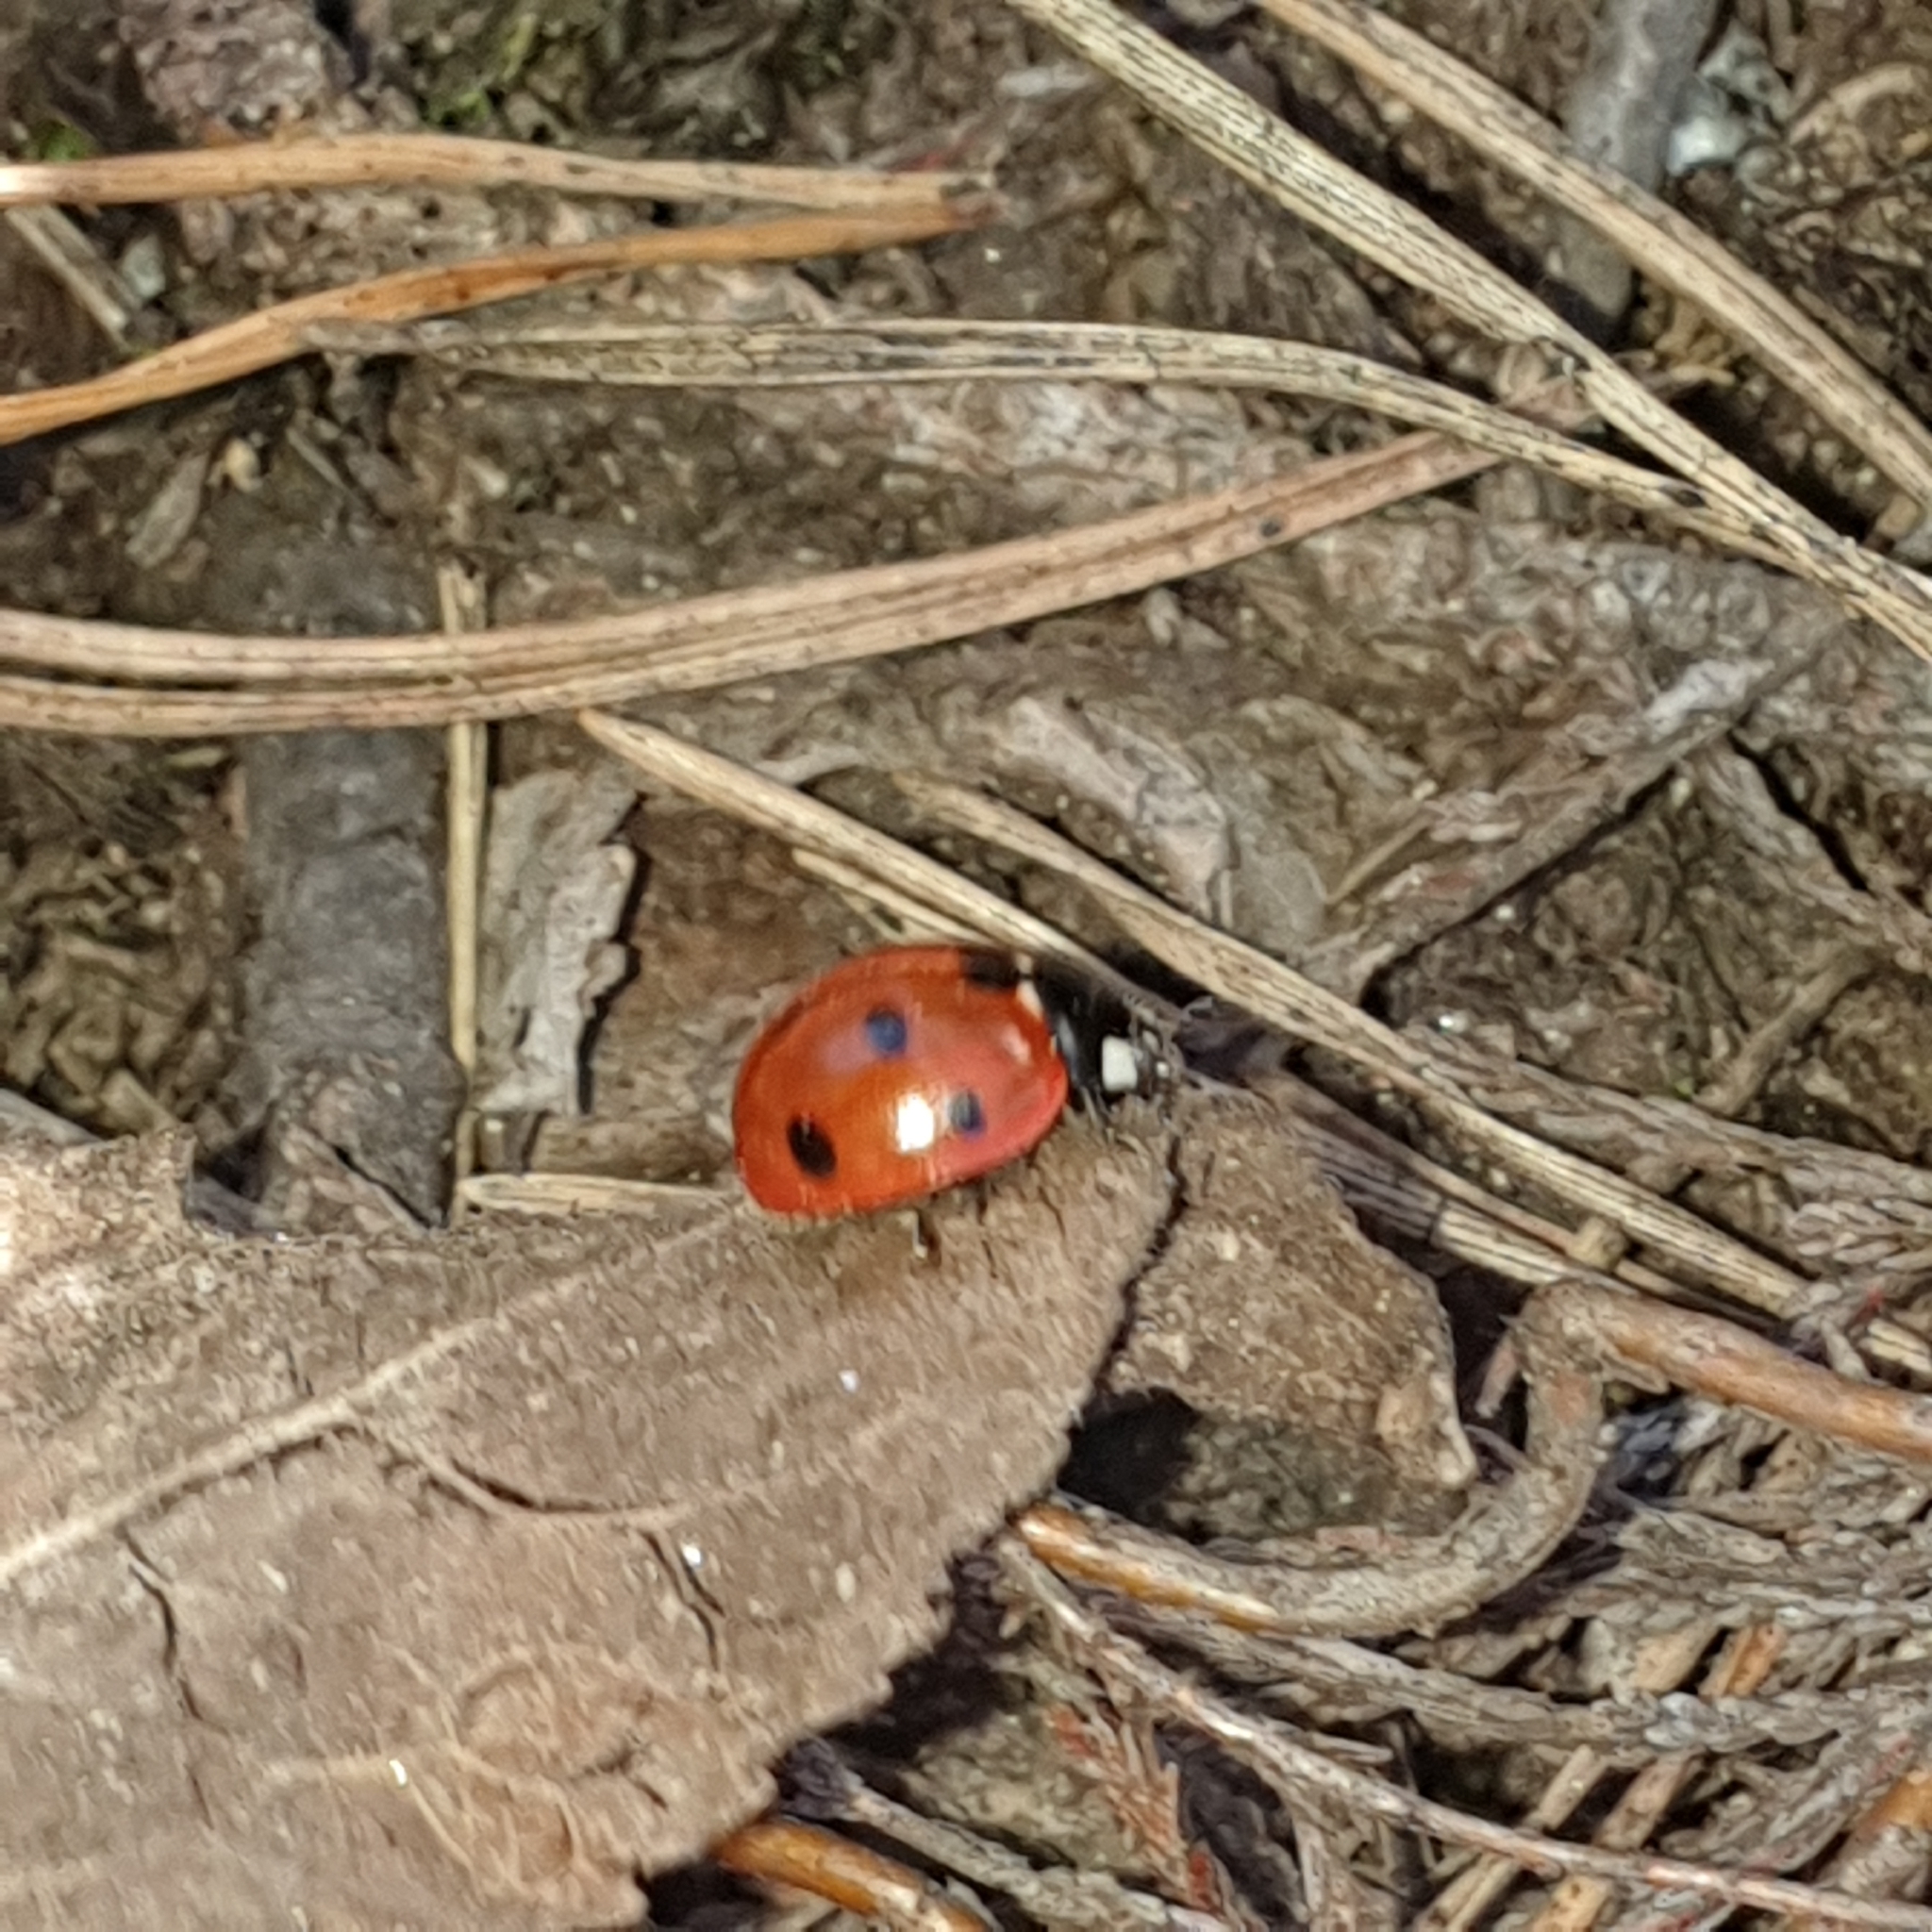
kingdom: Animalia
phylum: Arthropoda
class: Insecta
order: Coleoptera
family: Coccinellidae
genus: Coccinella
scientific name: Coccinella septempunctata
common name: Sevenspotted lady beetle
